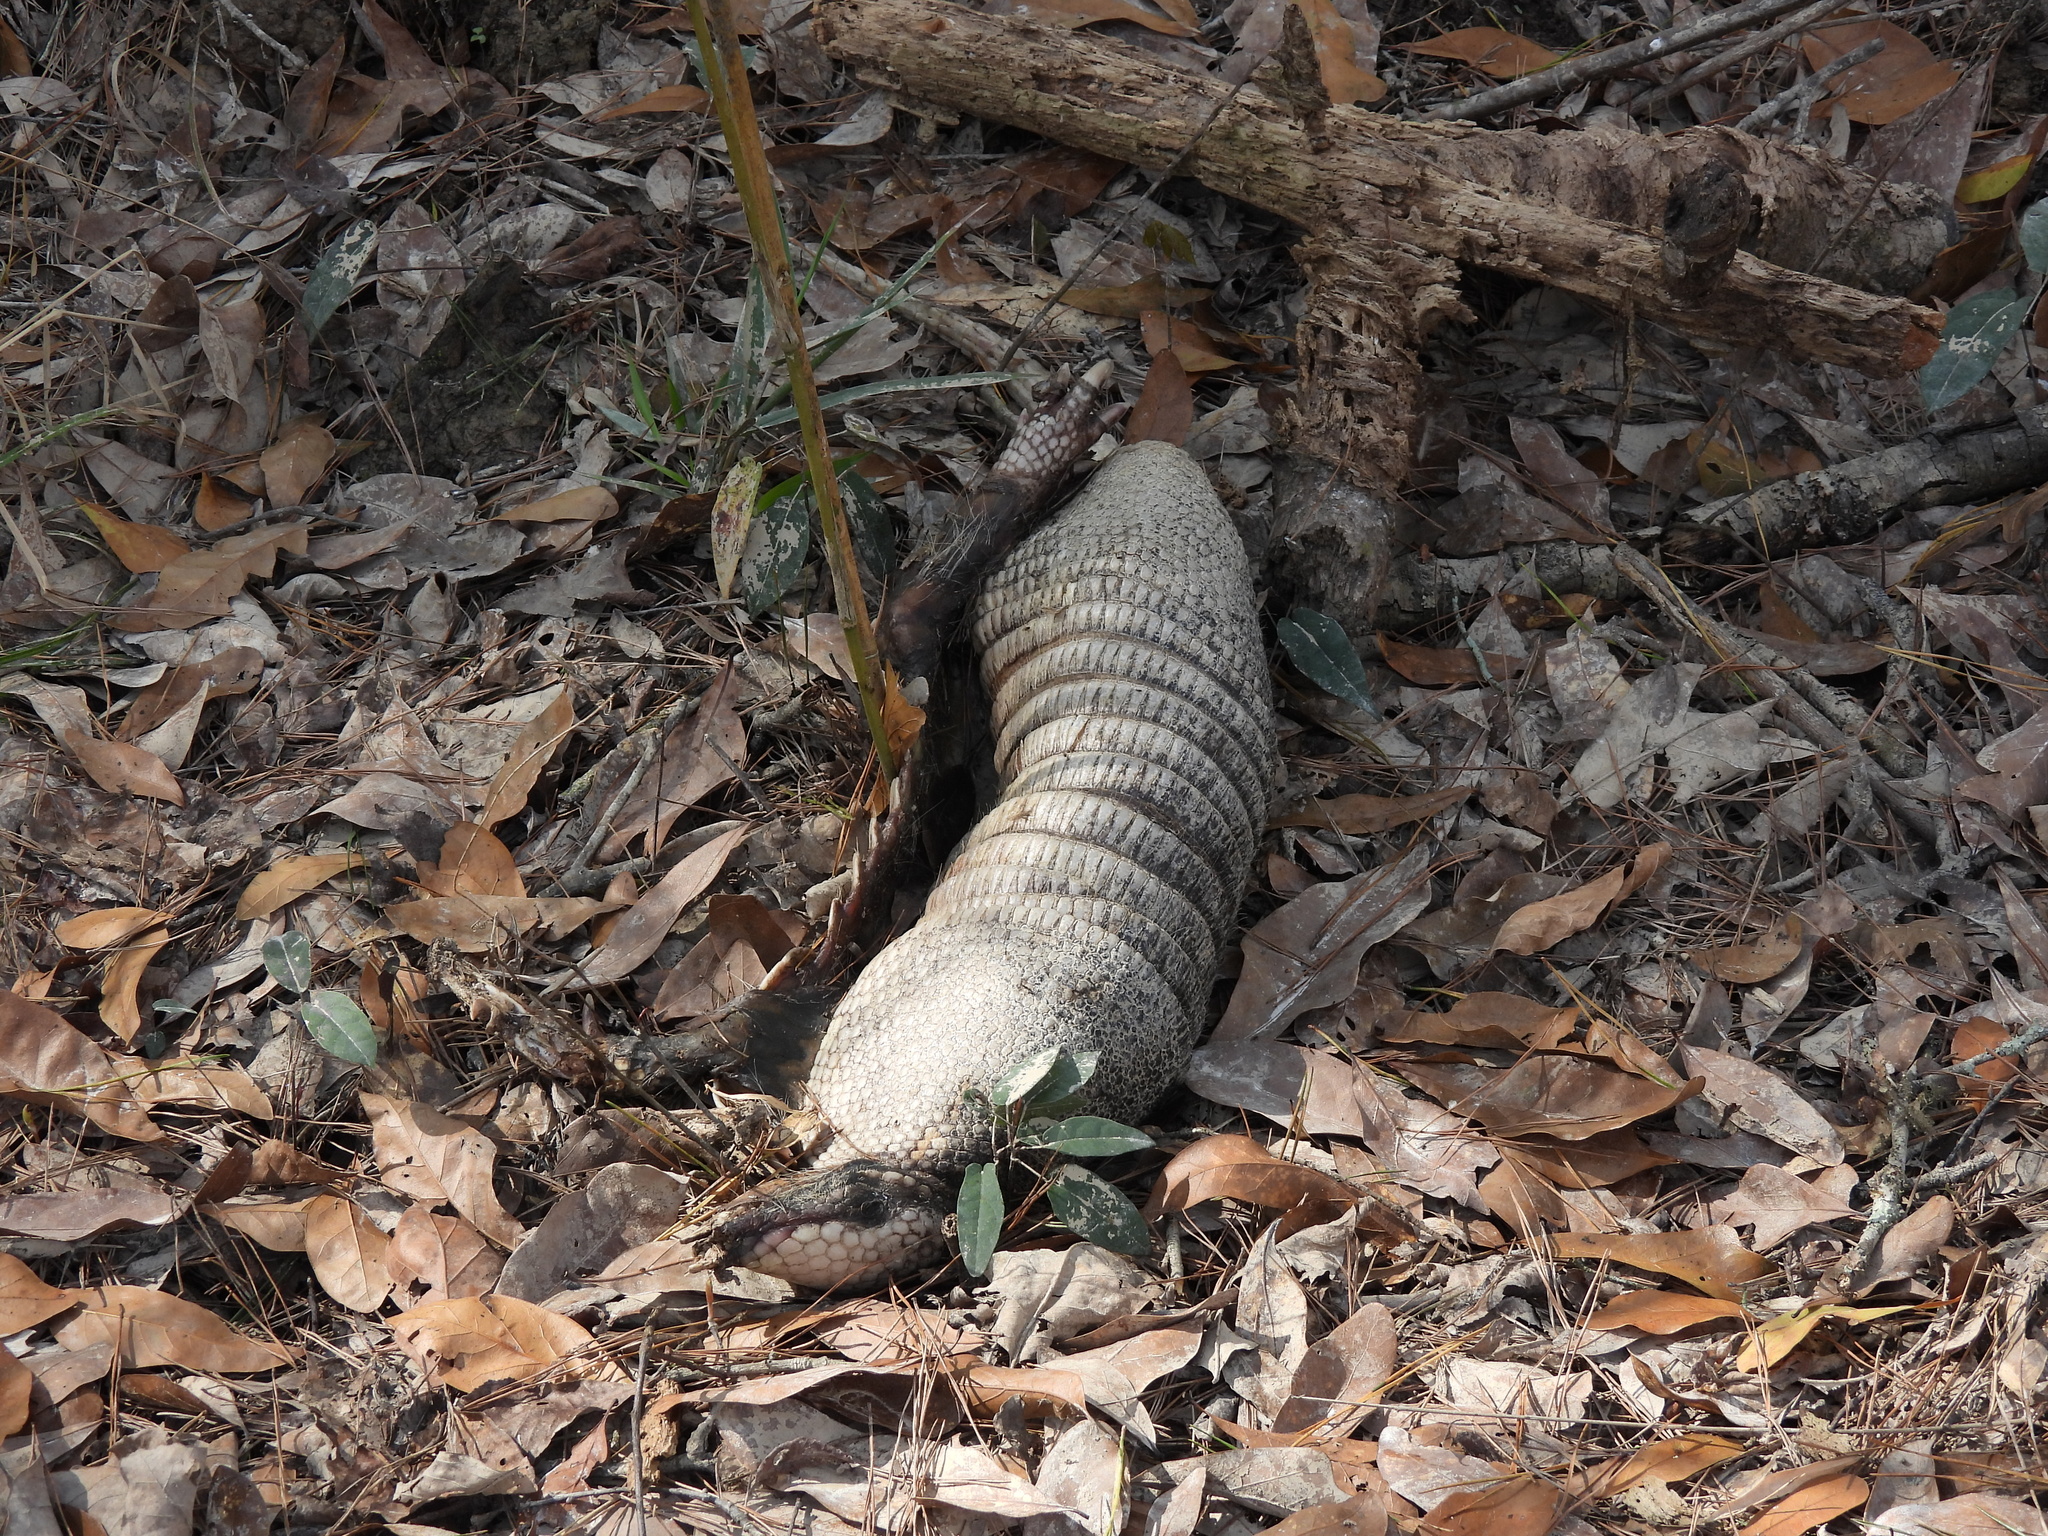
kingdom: Animalia
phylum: Chordata
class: Mammalia
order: Cingulata
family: Dasypodidae
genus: Dasypus
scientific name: Dasypus novemcinctus
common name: Nine-banded armadillo
